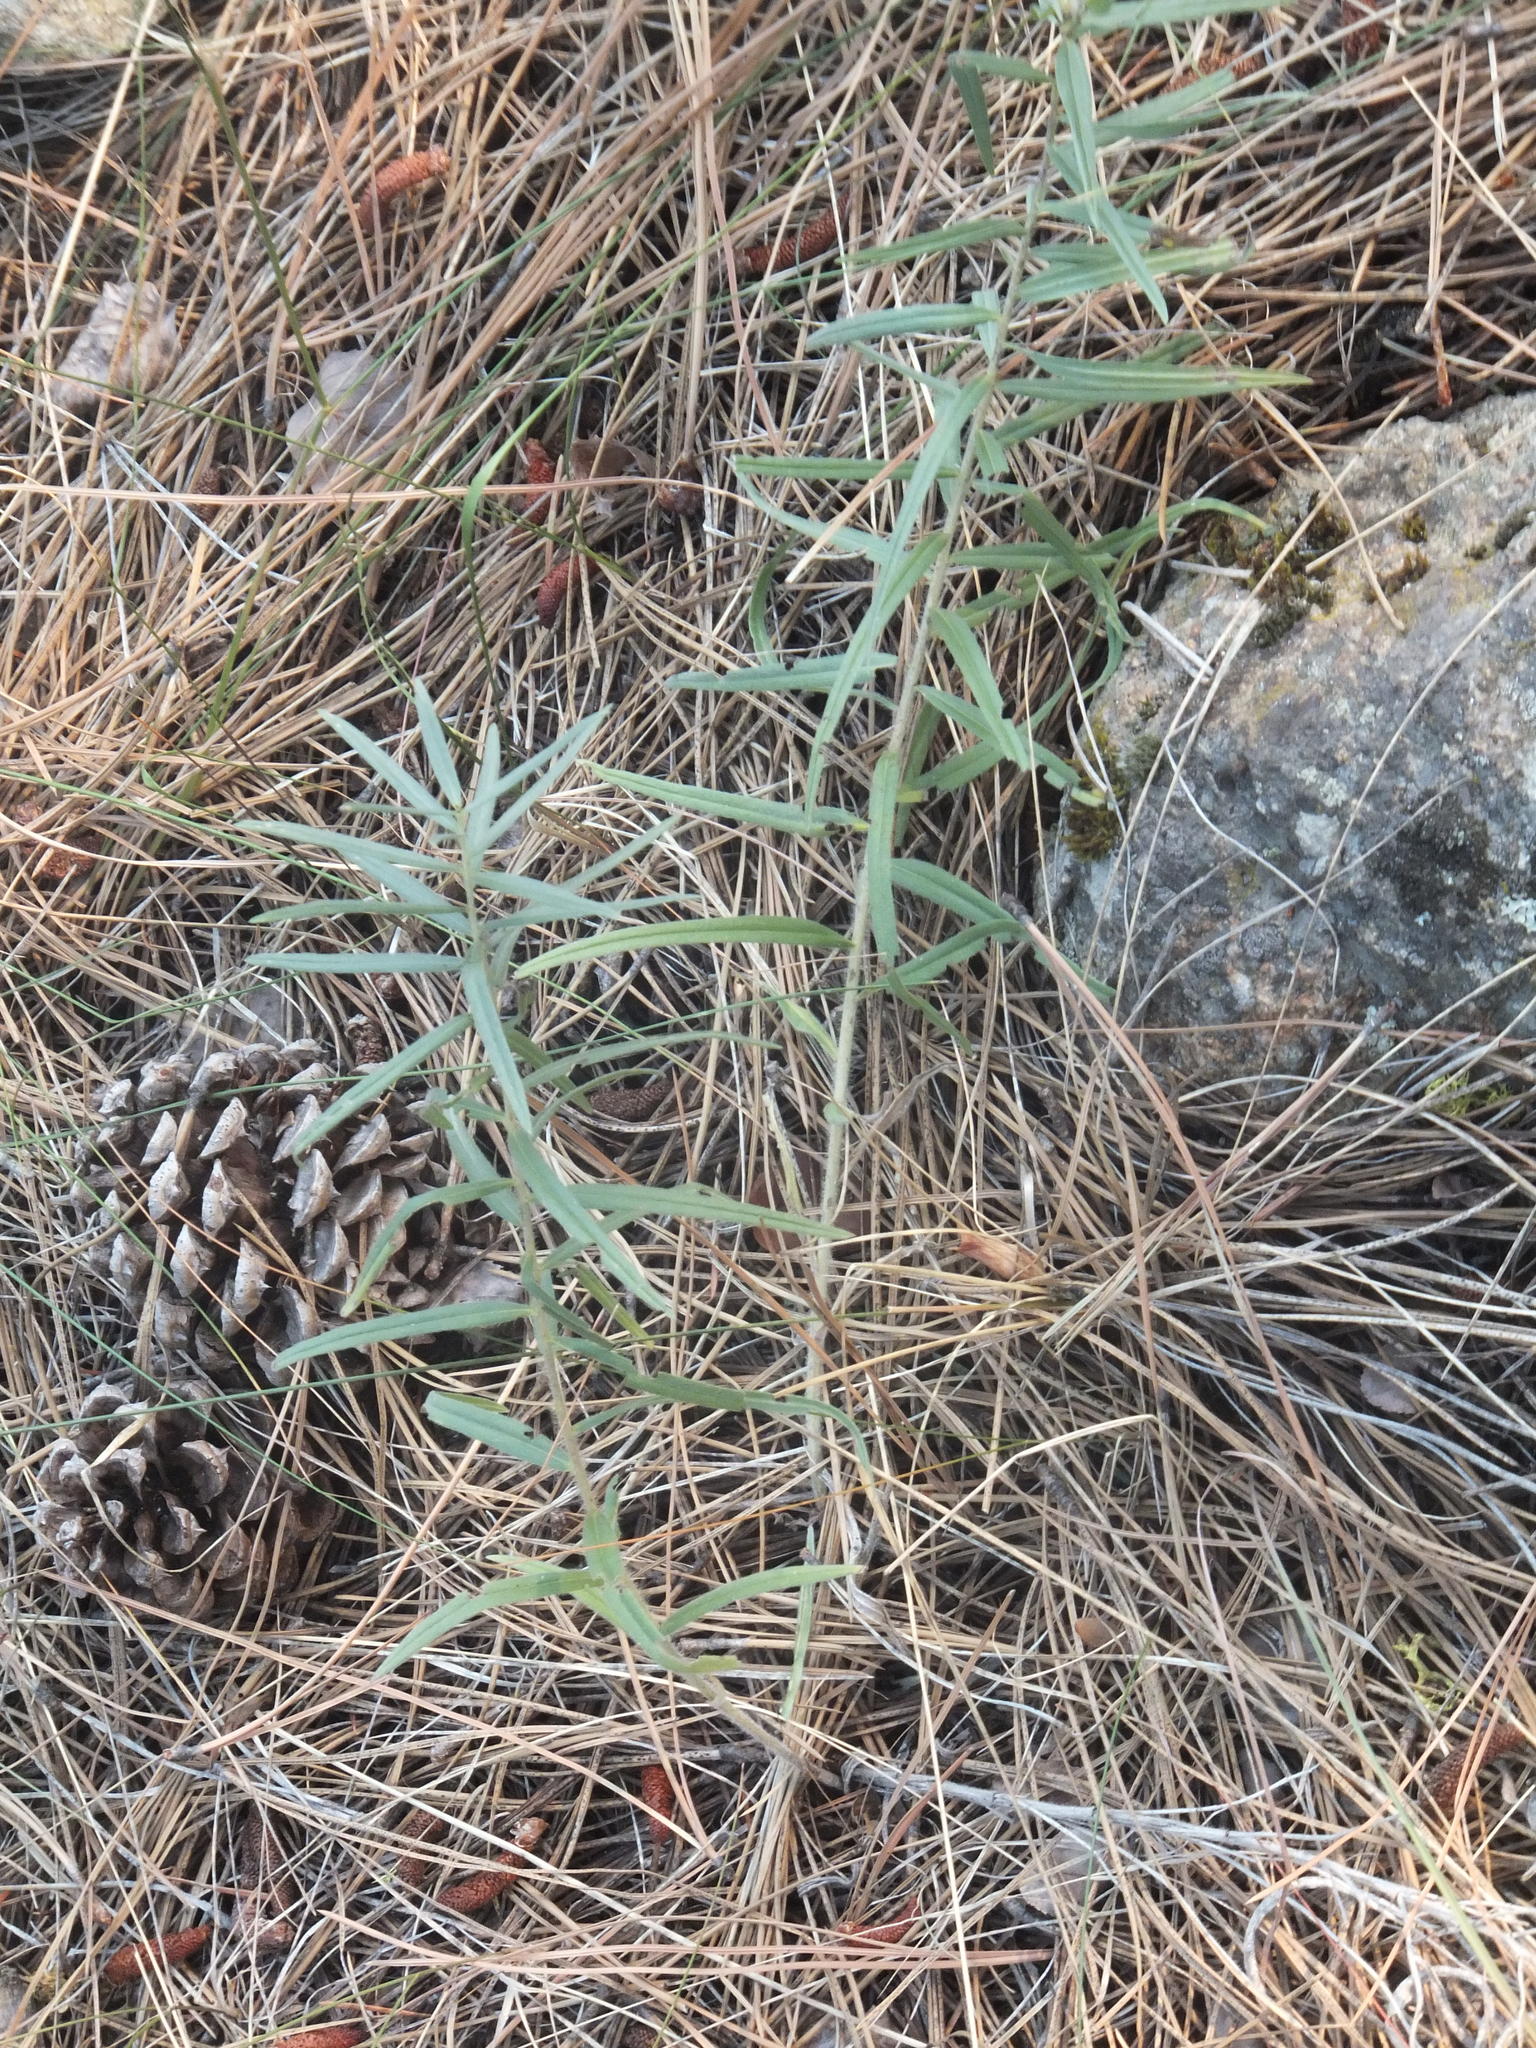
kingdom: Plantae
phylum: Tracheophyta
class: Magnoliopsida
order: Boraginales
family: Boraginaceae
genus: Lithospermum
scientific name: Lithospermum ruderale
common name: Western gromwell
